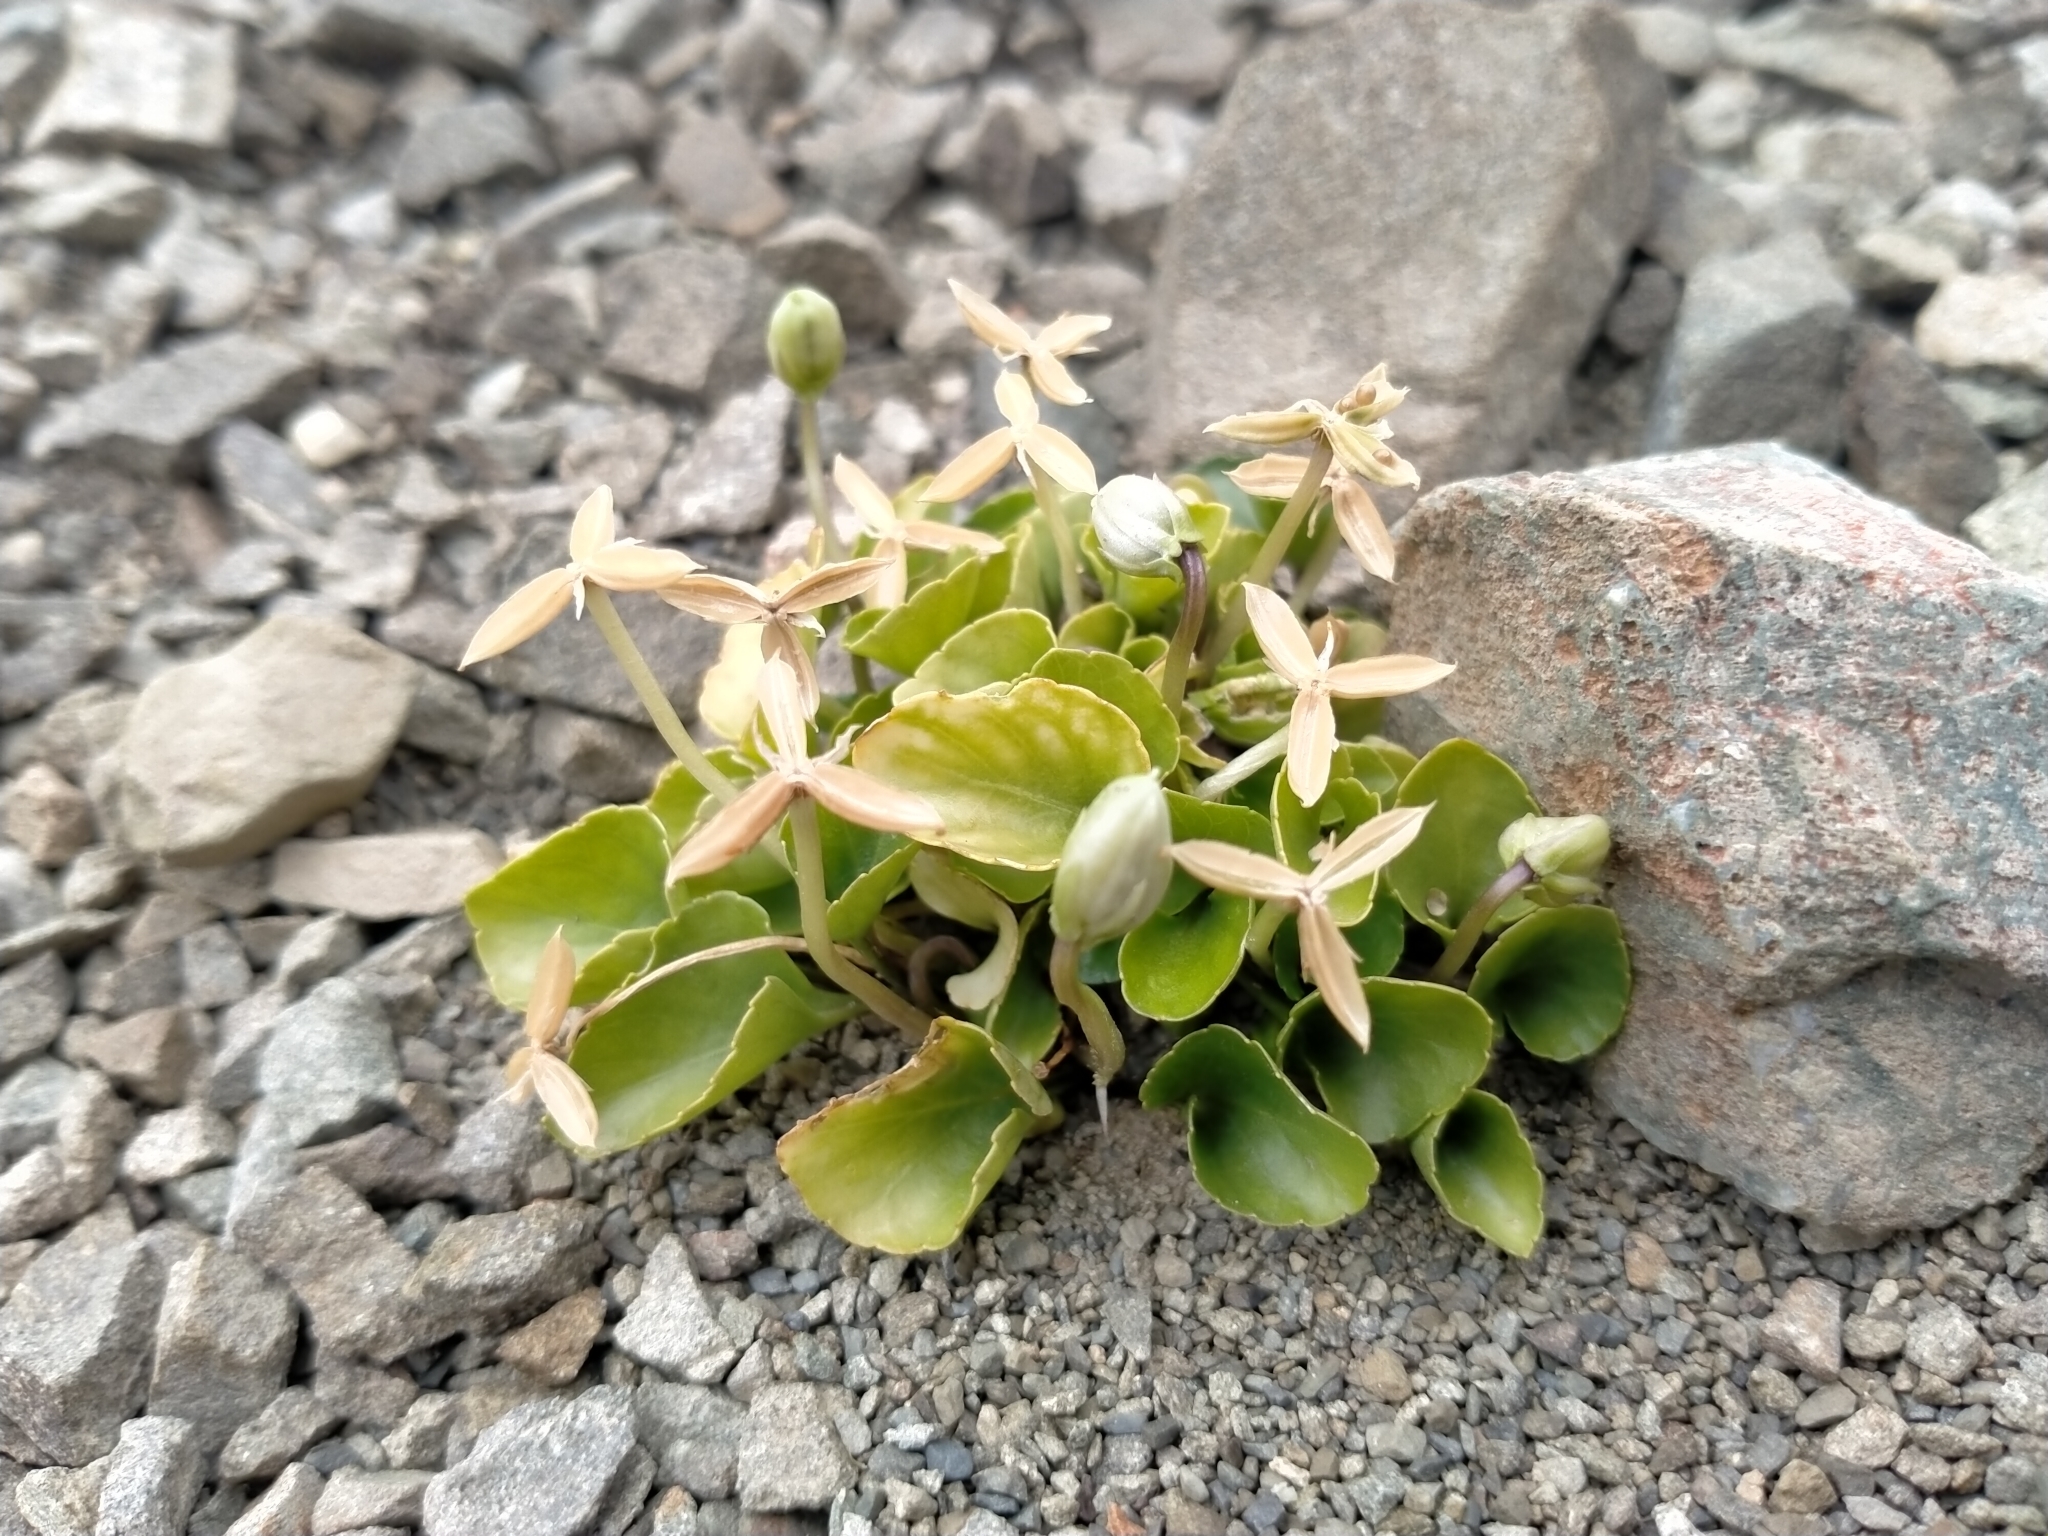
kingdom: Plantae
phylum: Tracheophyta
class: Magnoliopsida
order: Malpighiales
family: Violaceae
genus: Viola
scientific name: Viola cunninghamii
